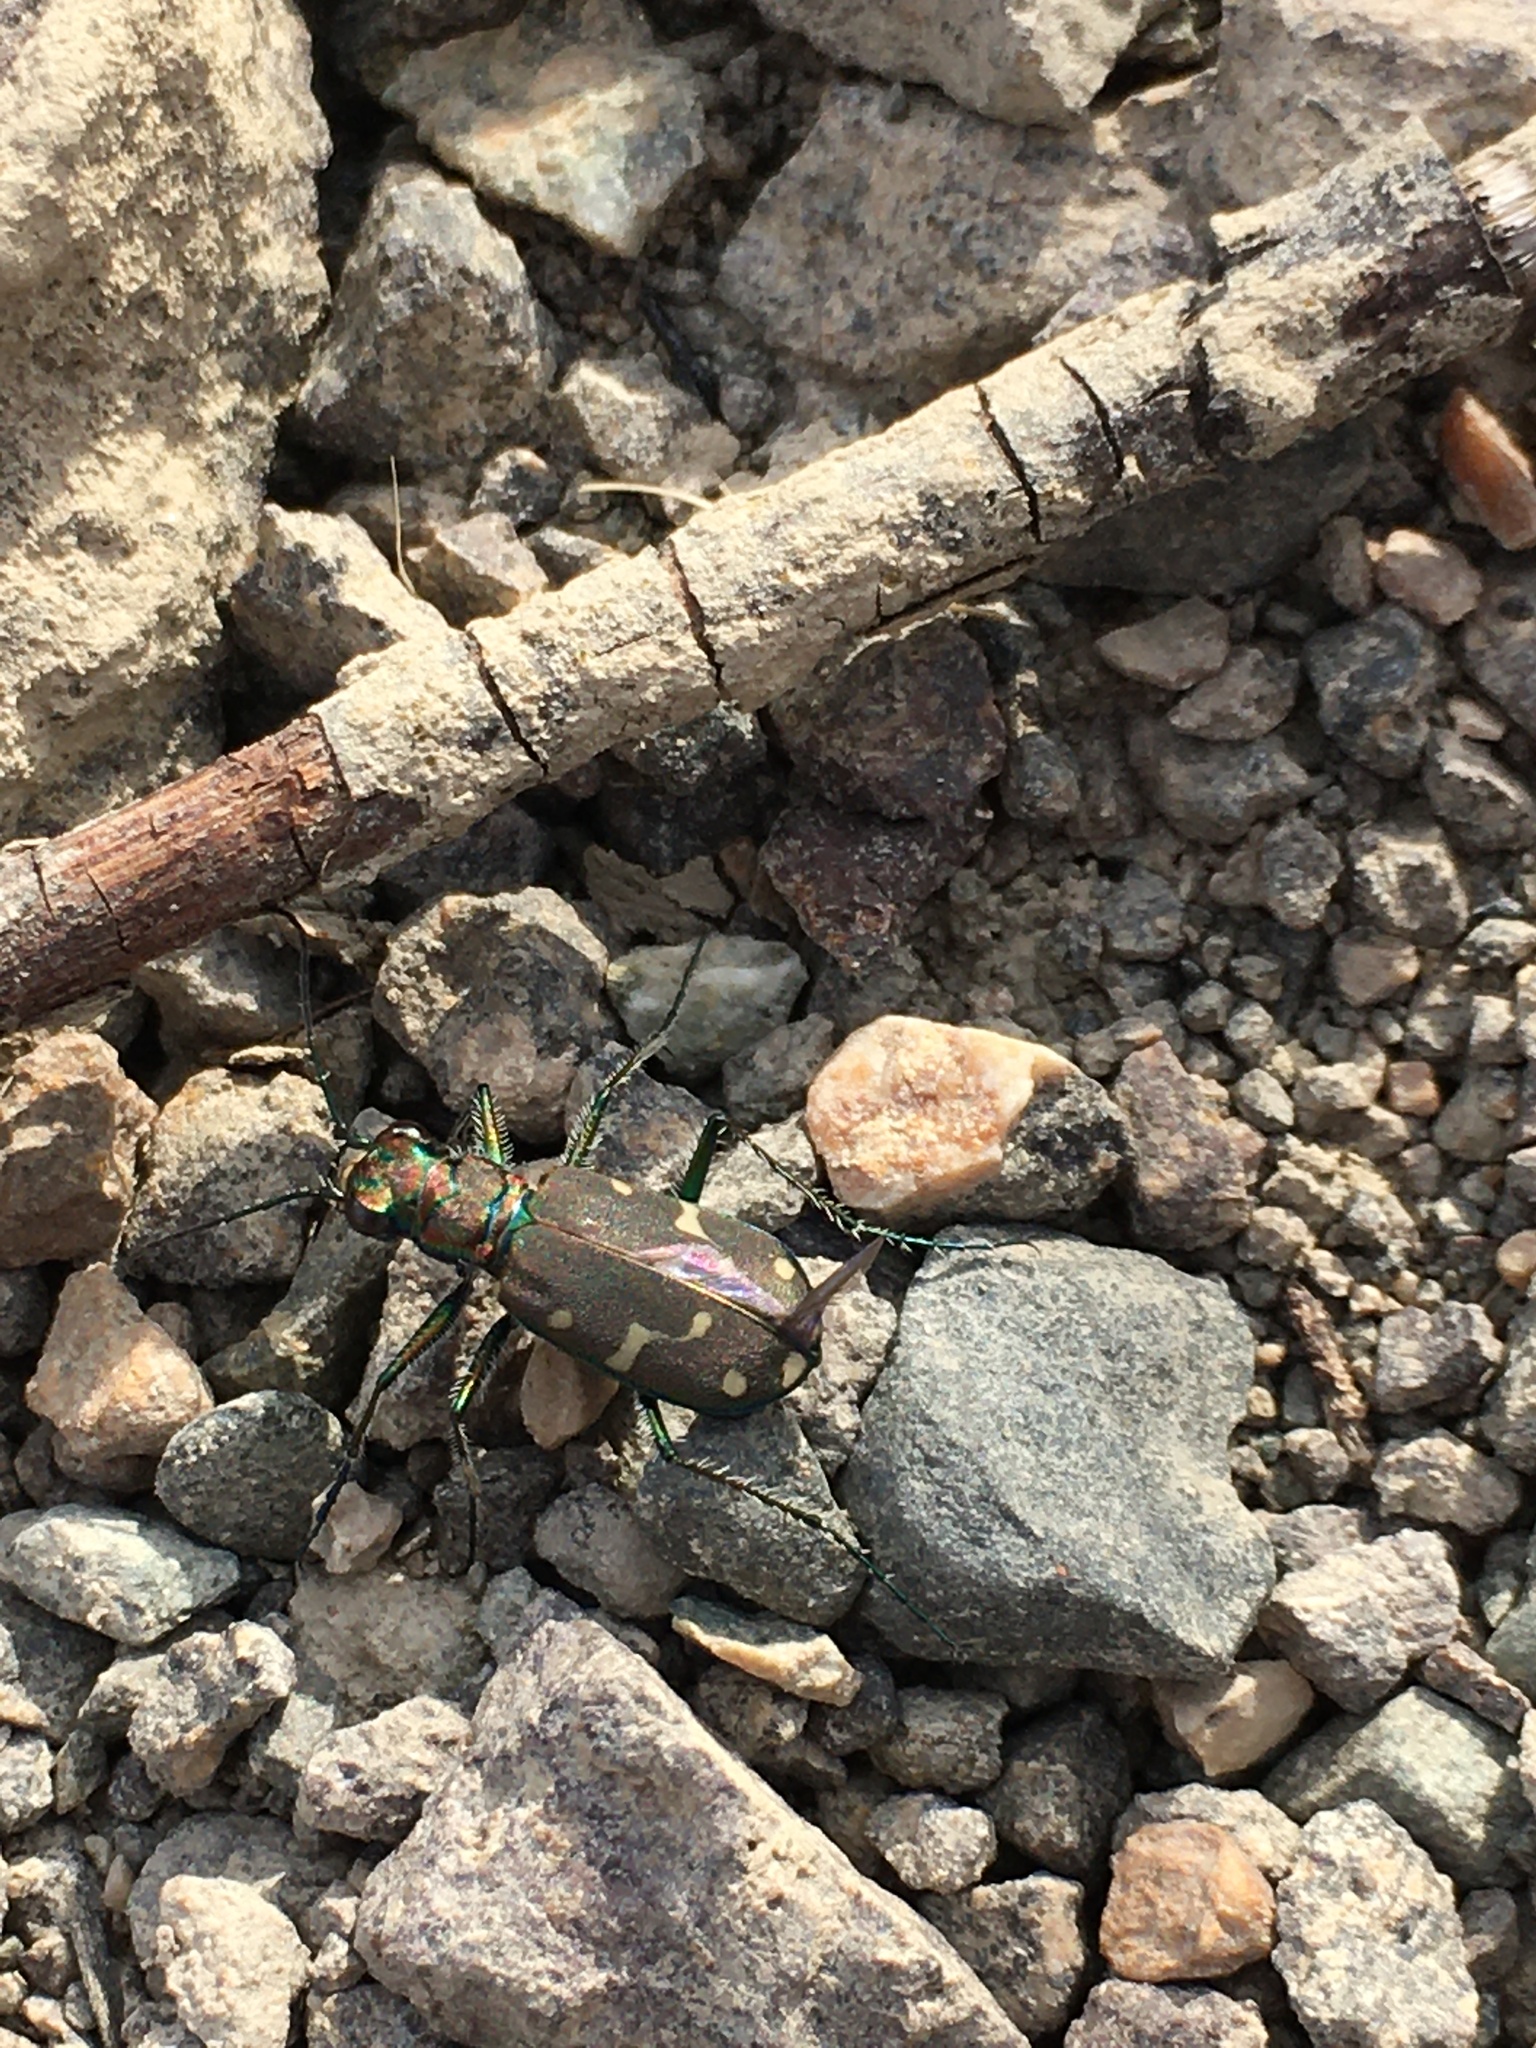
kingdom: Animalia
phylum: Arthropoda
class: Insecta
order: Coleoptera
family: Carabidae
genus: Cicindela
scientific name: Cicindela oregona
